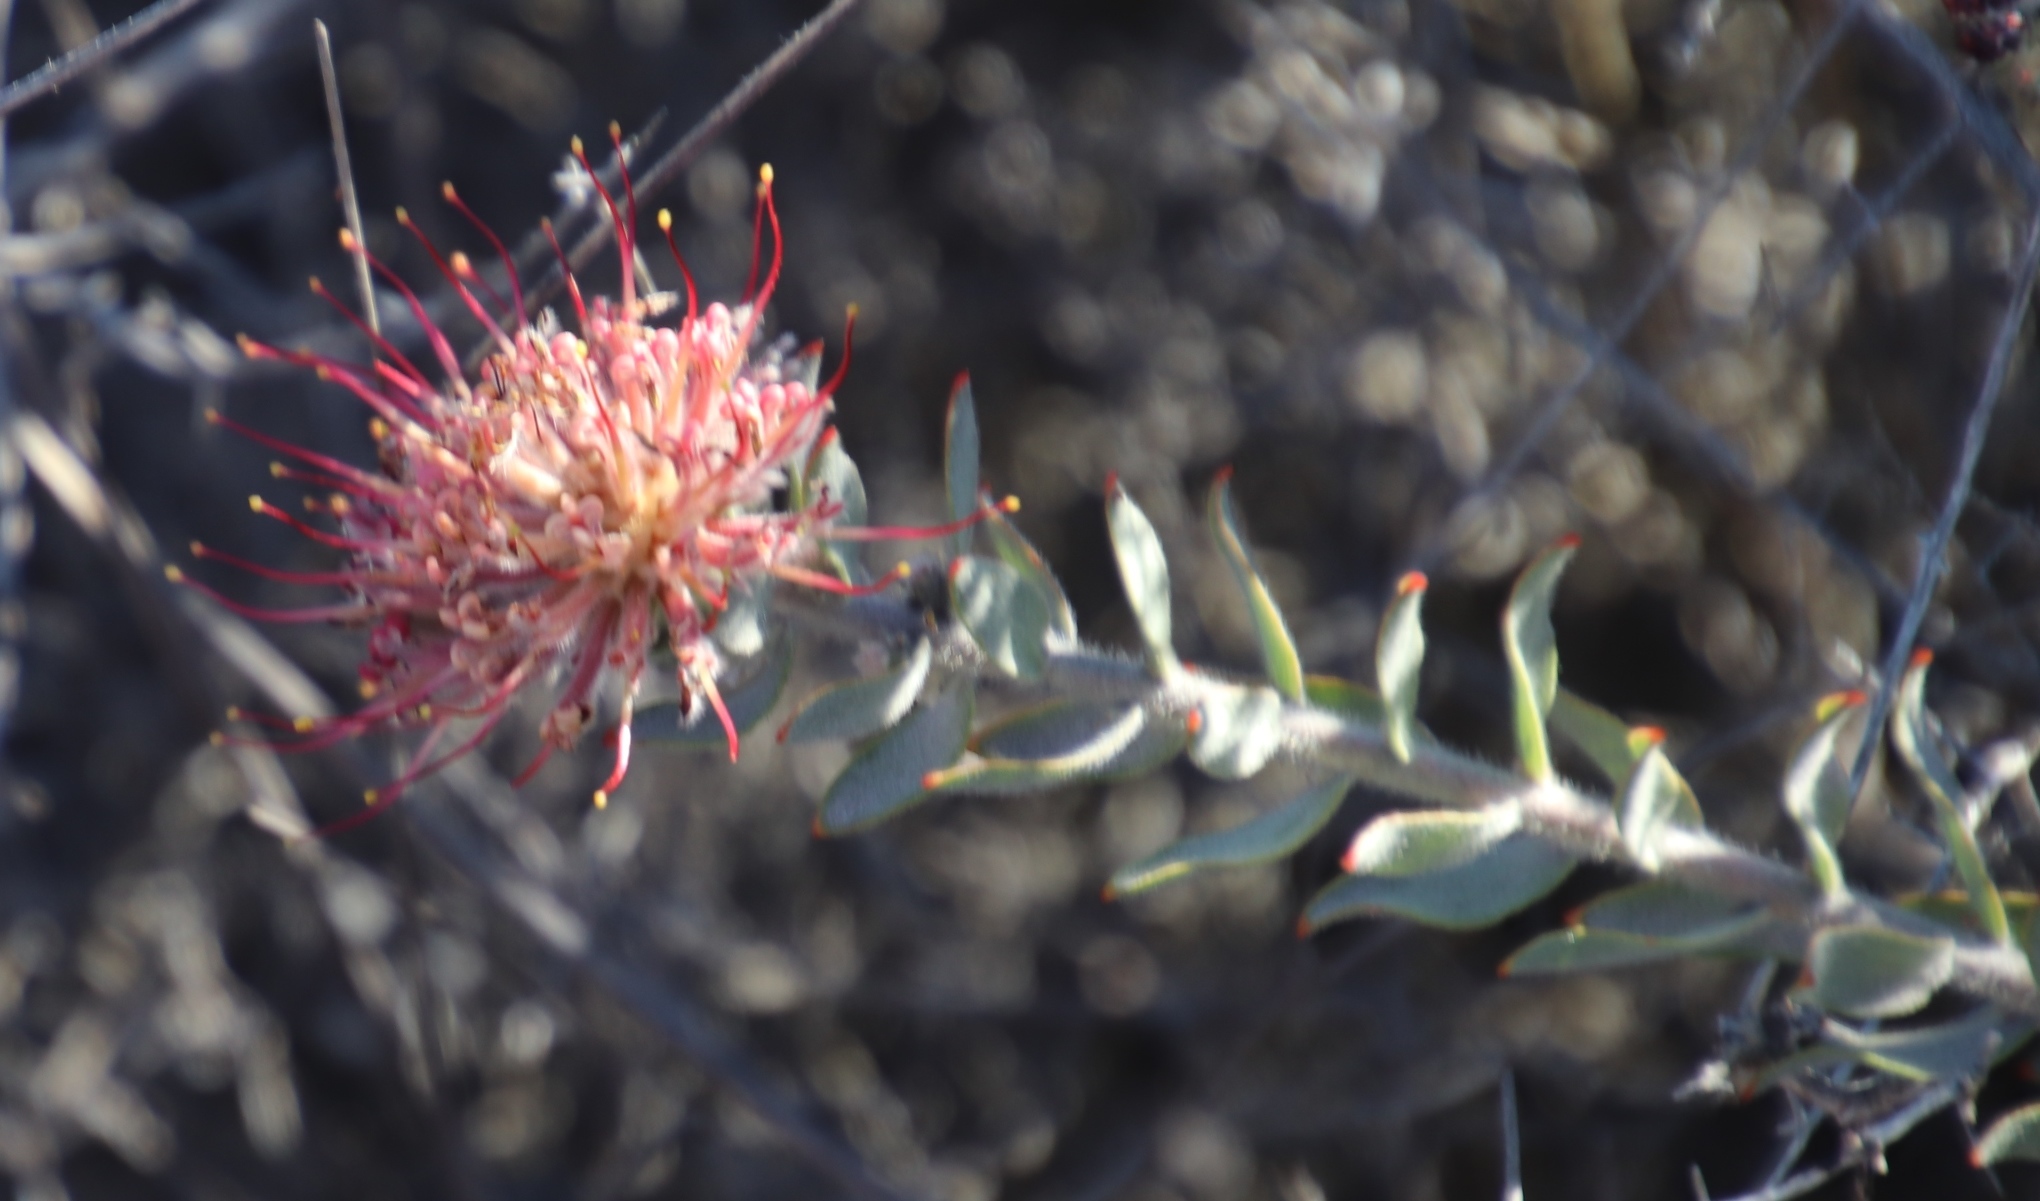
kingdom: Plantae
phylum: Tracheophyta
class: Magnoliopsida
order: Proteales
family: Proteaceae
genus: Leucospermum
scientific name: Leucospermum calligerum
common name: Arid pincushion
